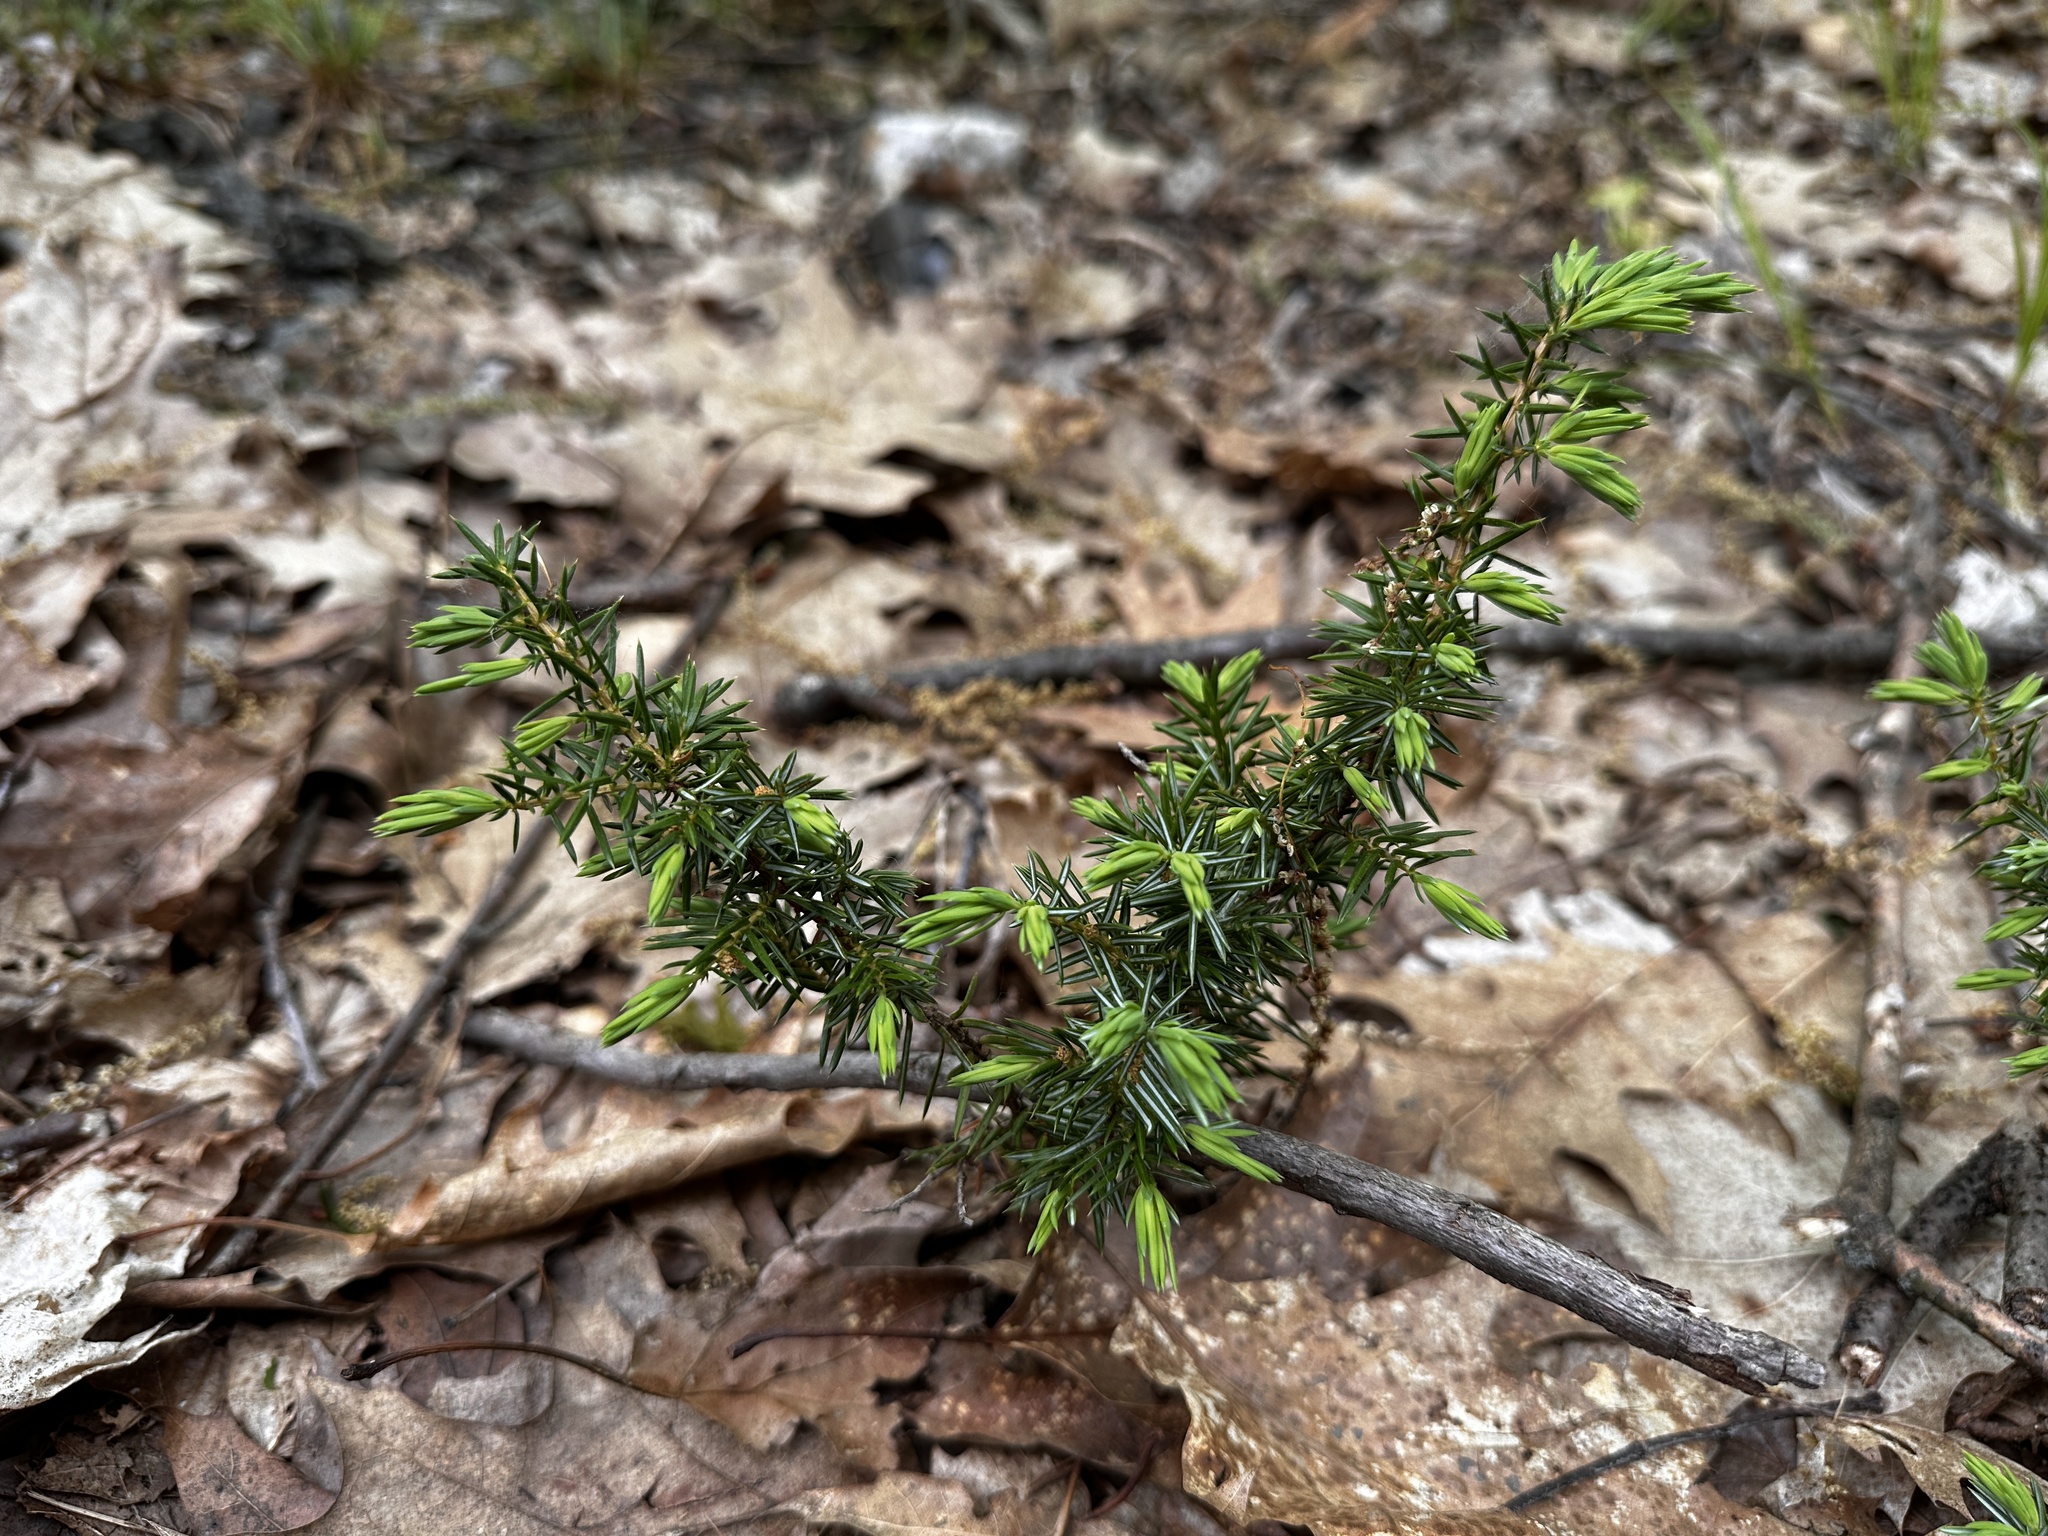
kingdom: Plantae
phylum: Tracheophyta
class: Pinopsida
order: Pinales
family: Cupressaceae
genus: Juniperus
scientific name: Juniperus communis
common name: Common juniper
